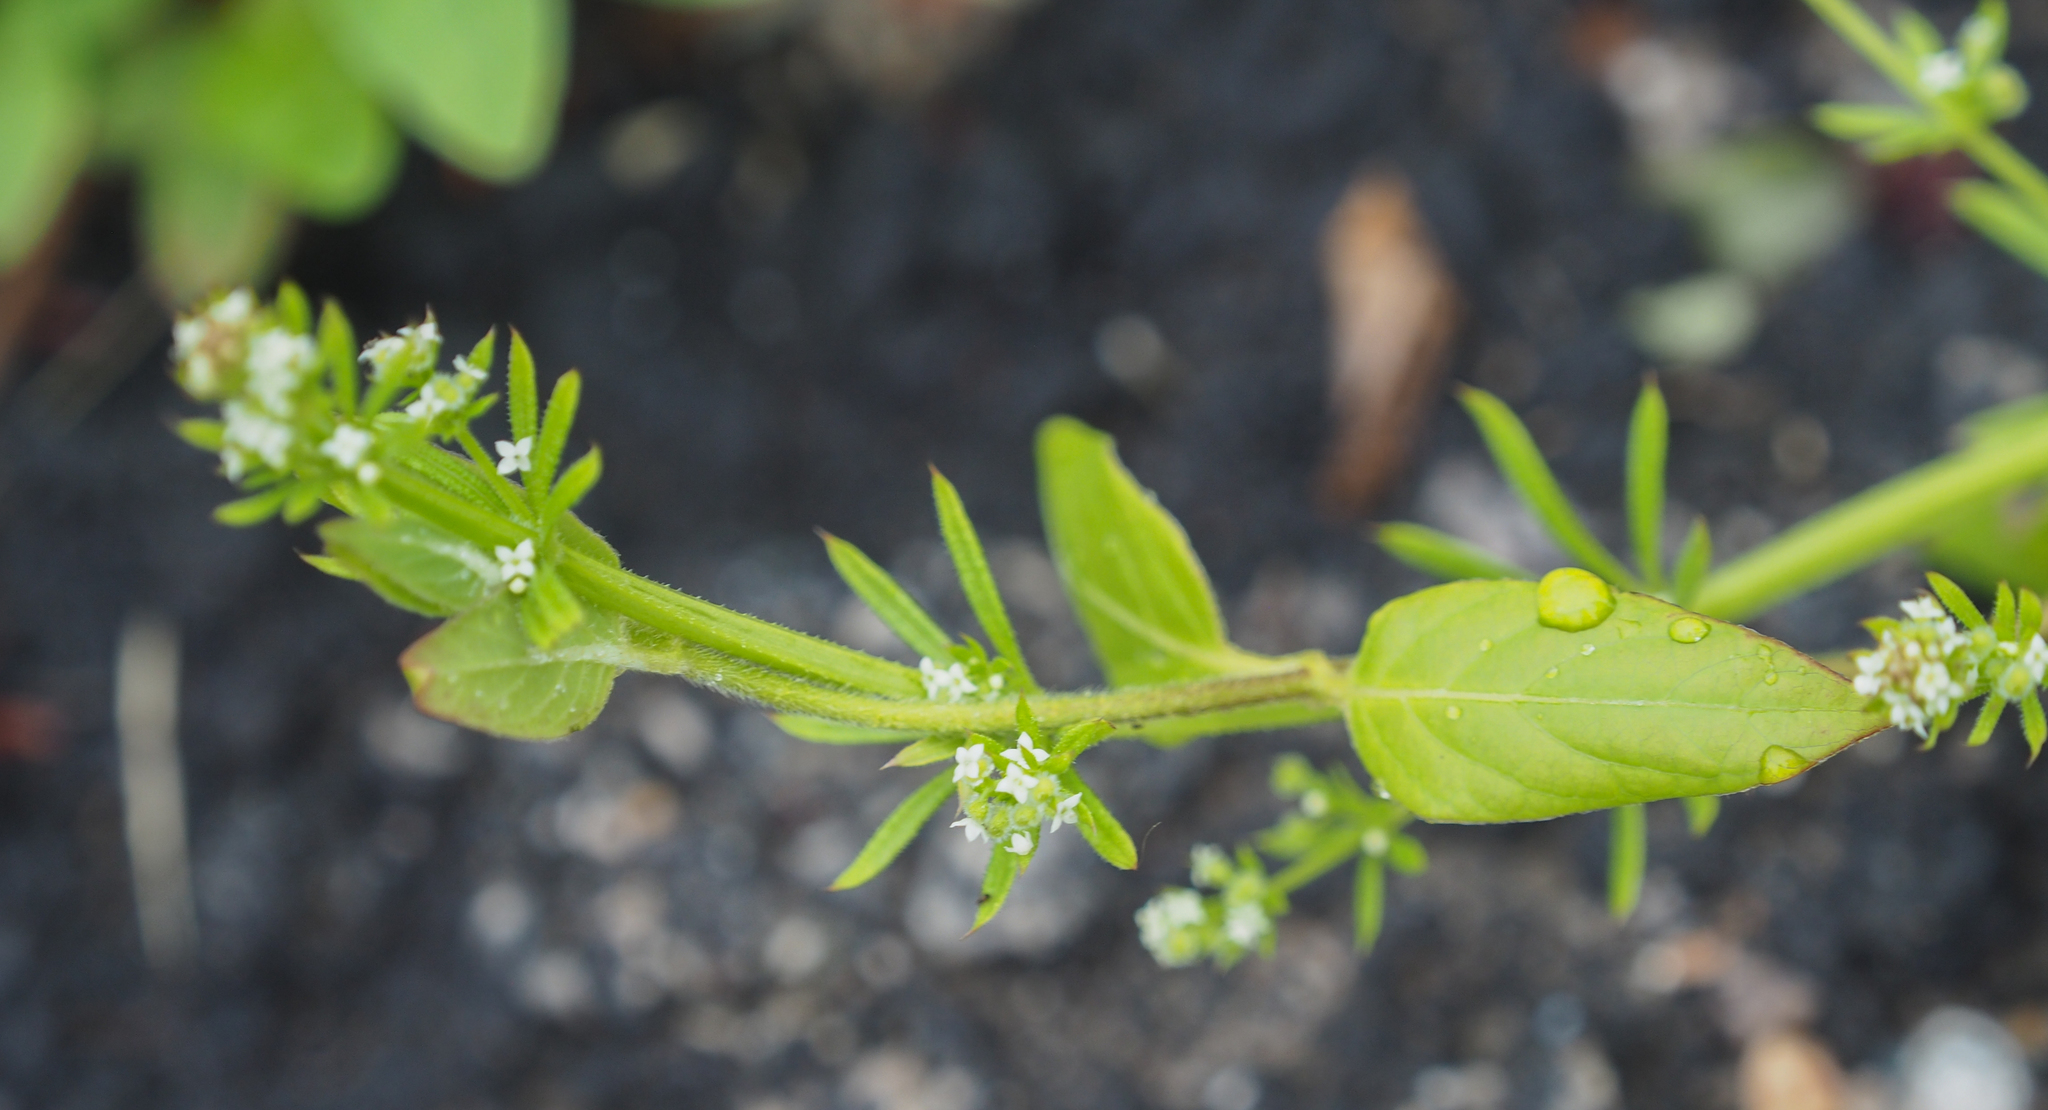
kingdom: Plantae
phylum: Tracheophyta
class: Magnoliopsida
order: Gentianales
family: Rubiaceae
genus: Galium
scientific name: Galium aparine
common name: Cleavers
